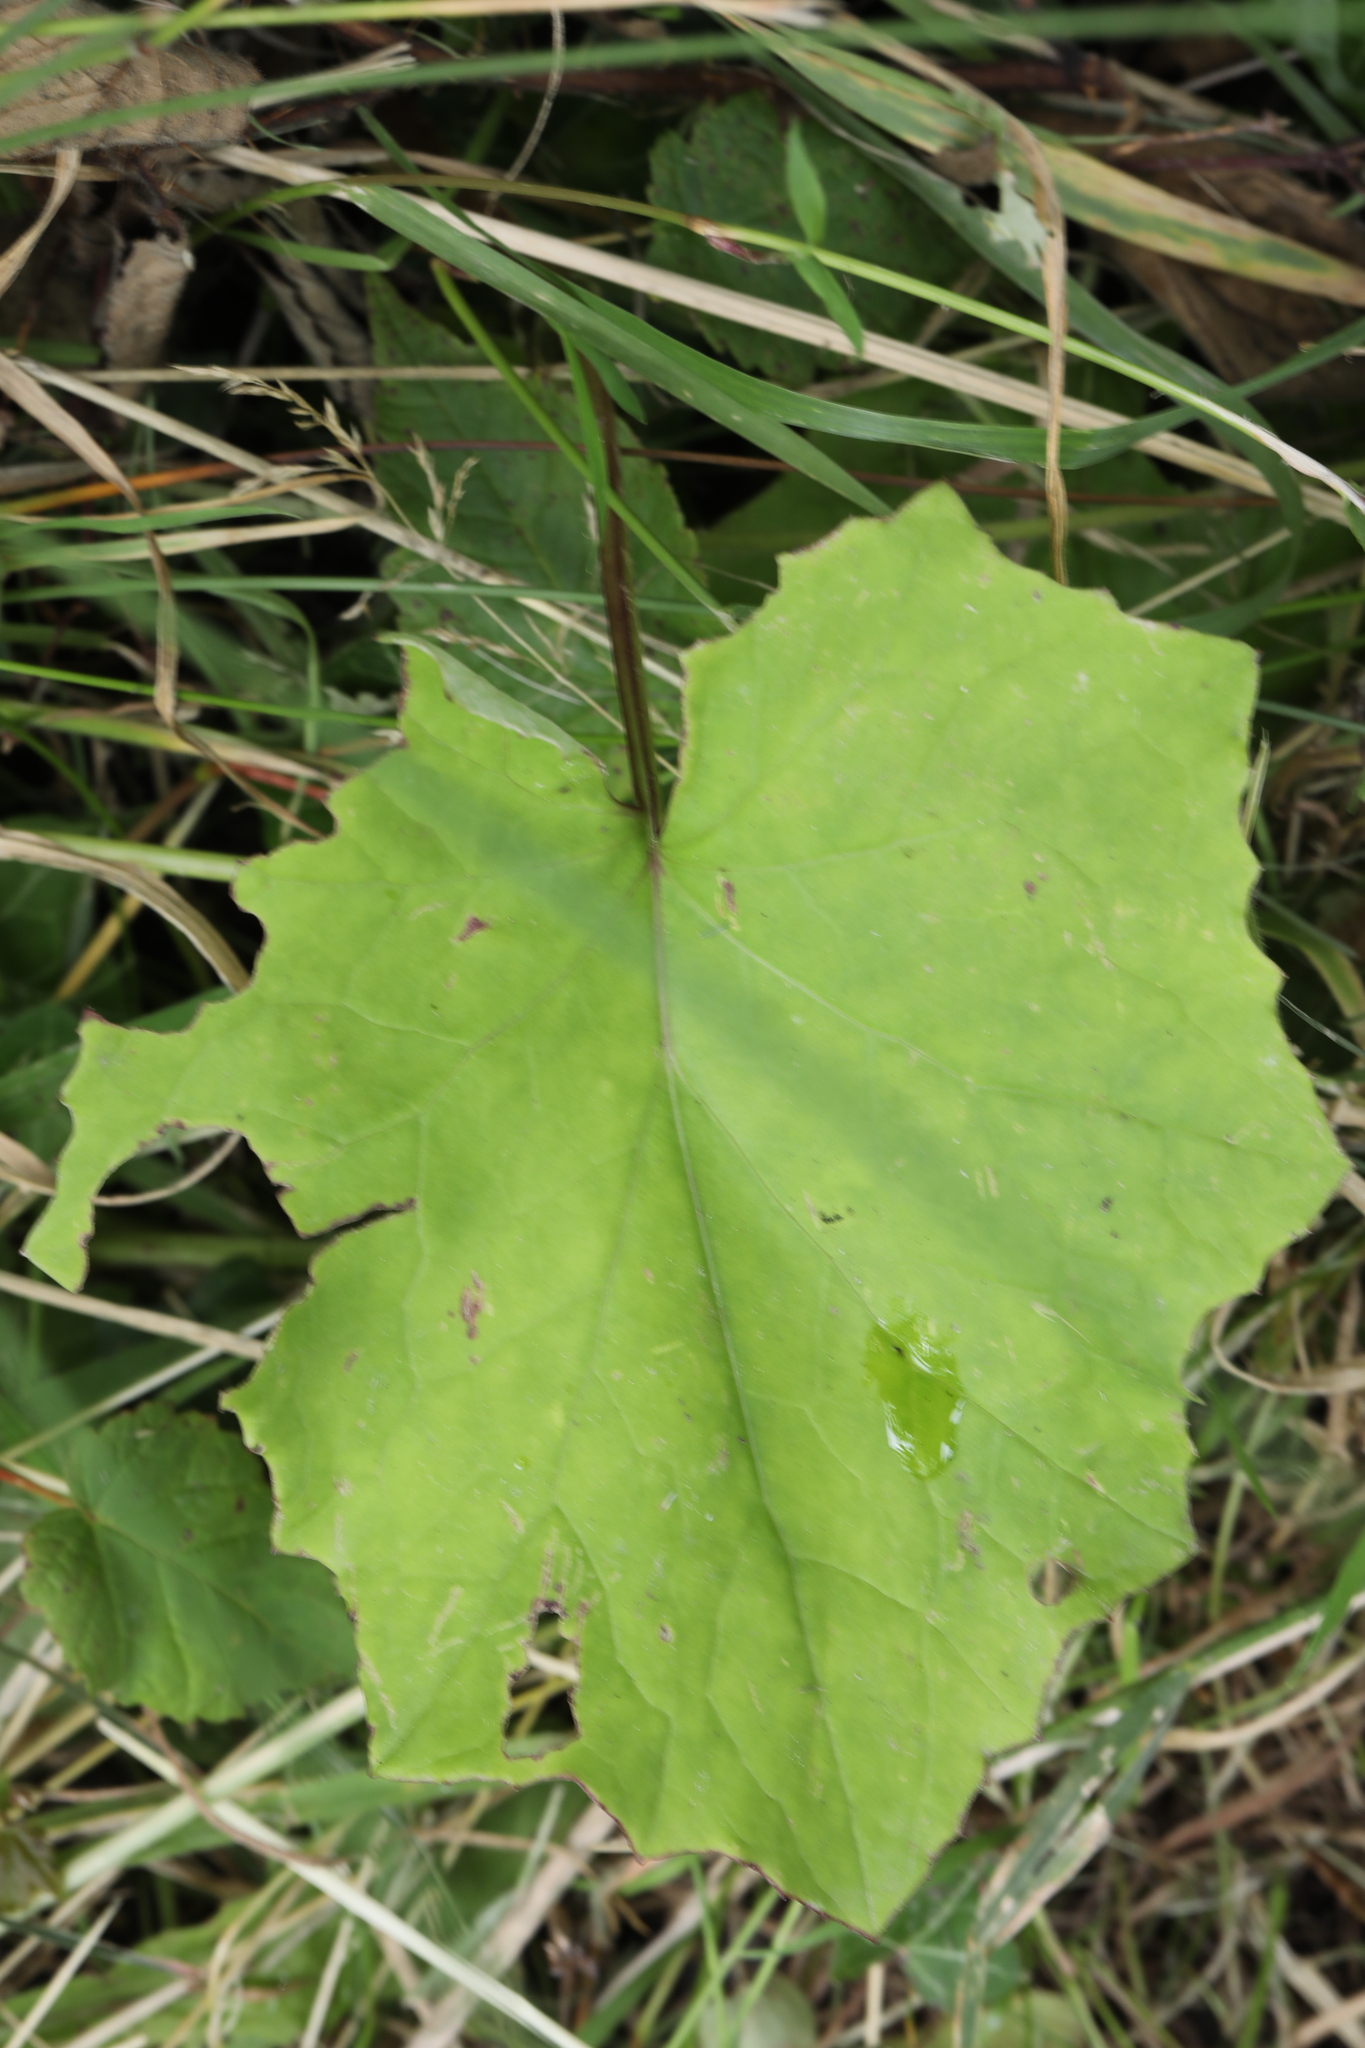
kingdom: Plantae
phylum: Tracheophyta
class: Magnoliopsida
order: Asterales
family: Asteraceae
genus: Tussilago
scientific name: Tussilago farfara
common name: Coltsfoot
